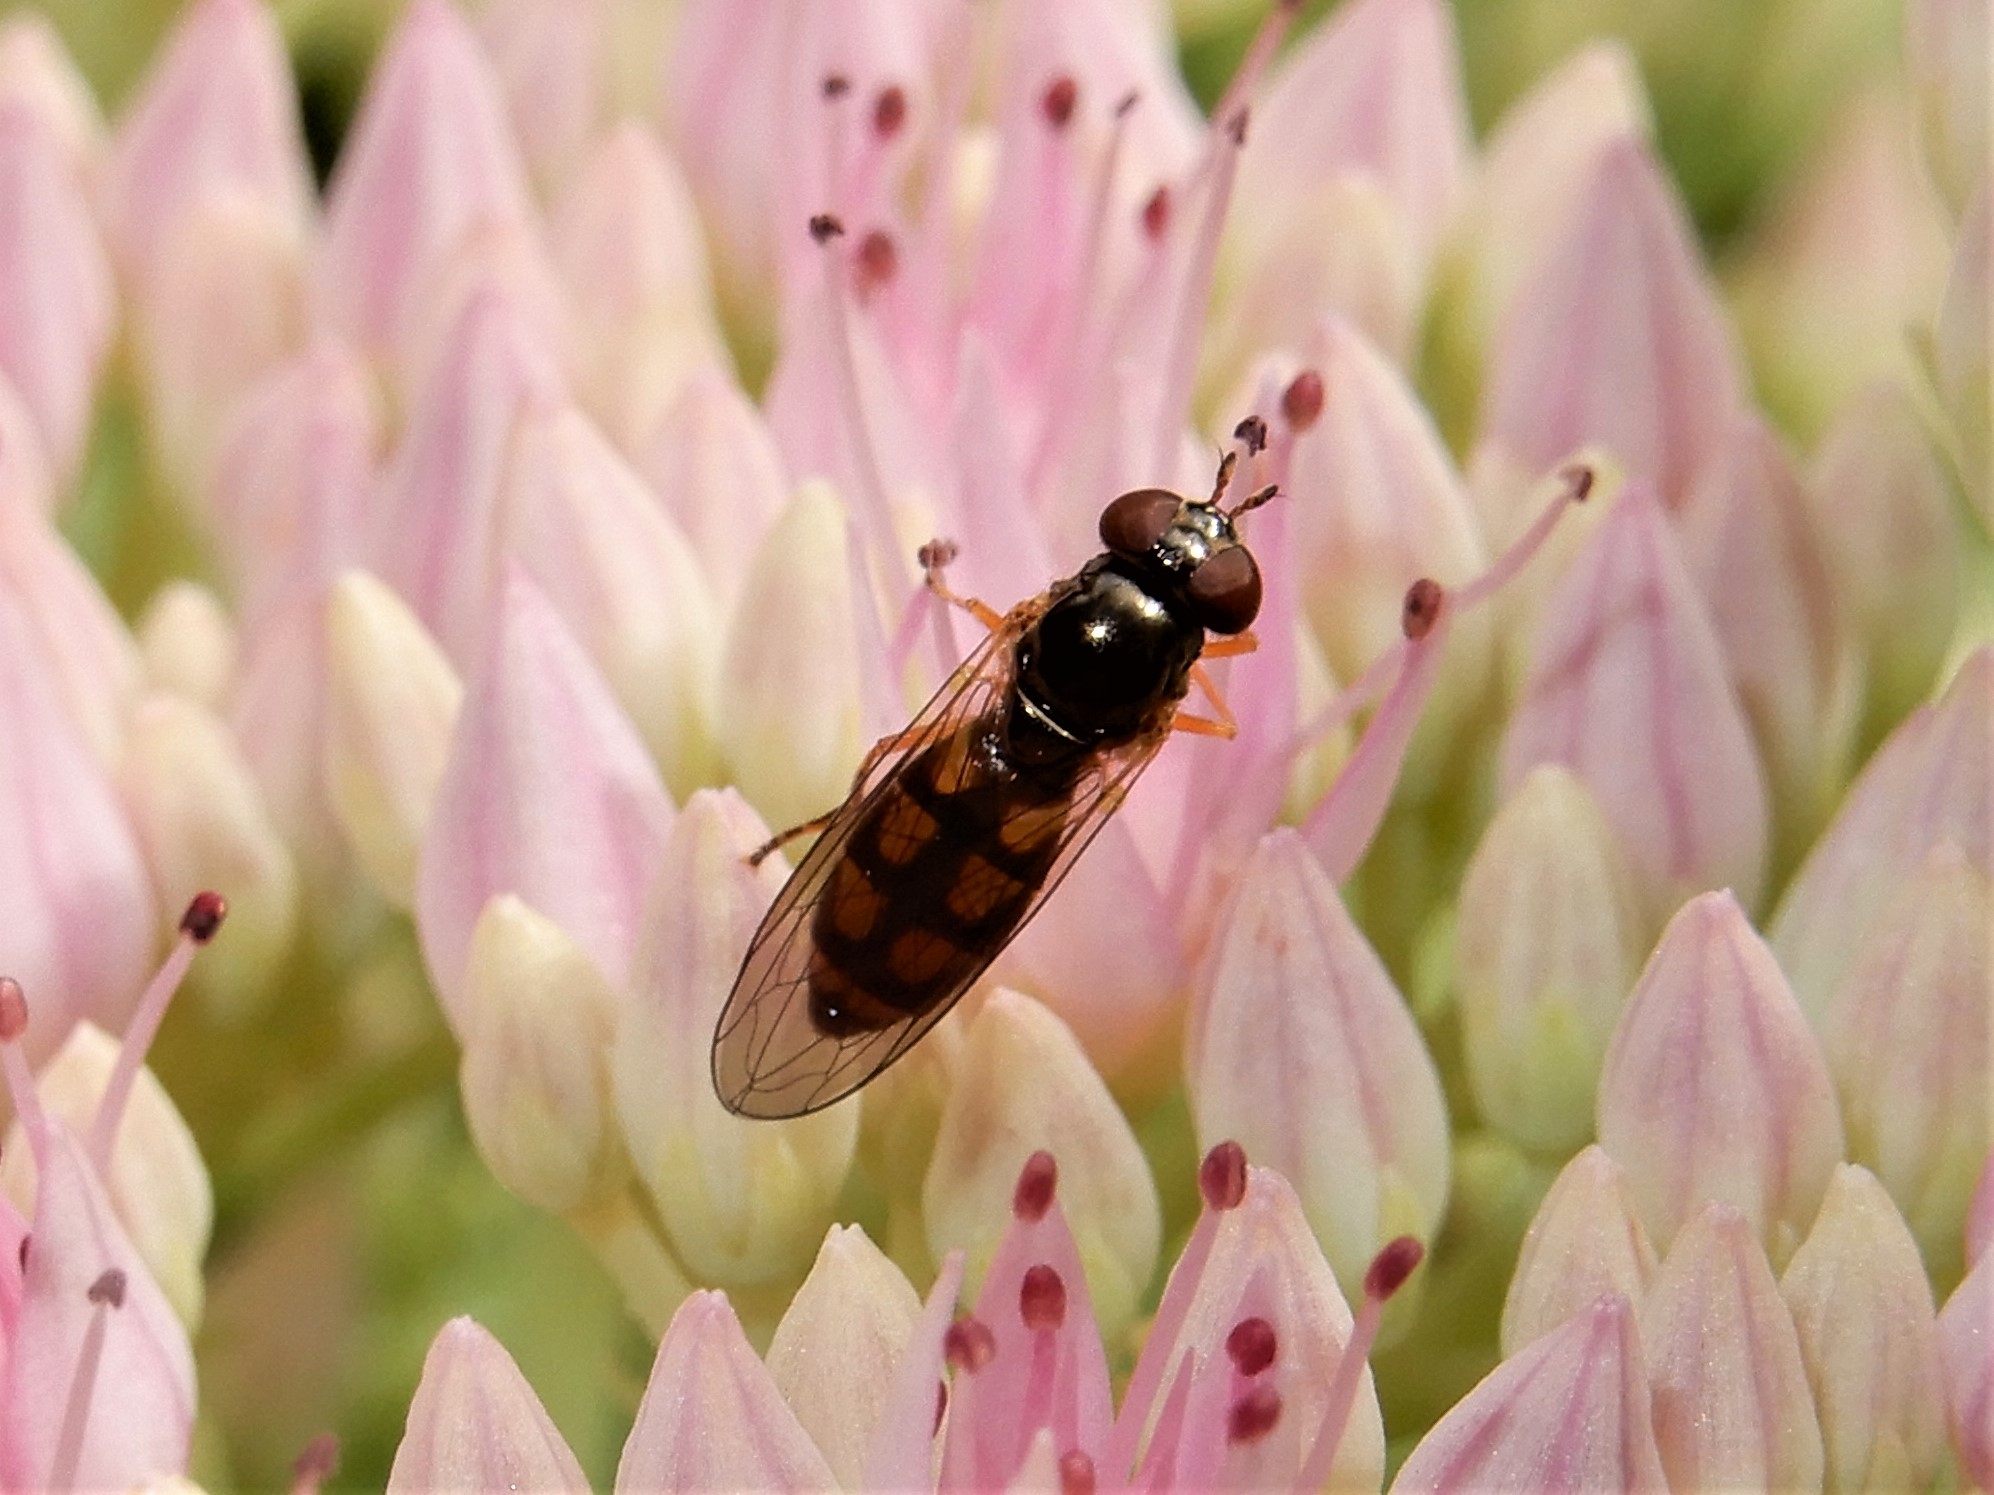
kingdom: Animalia
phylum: Arthropoda
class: Insecta
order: Diptera
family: Syrphidae
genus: Melanostoma
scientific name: Melanostoma fasciatum
